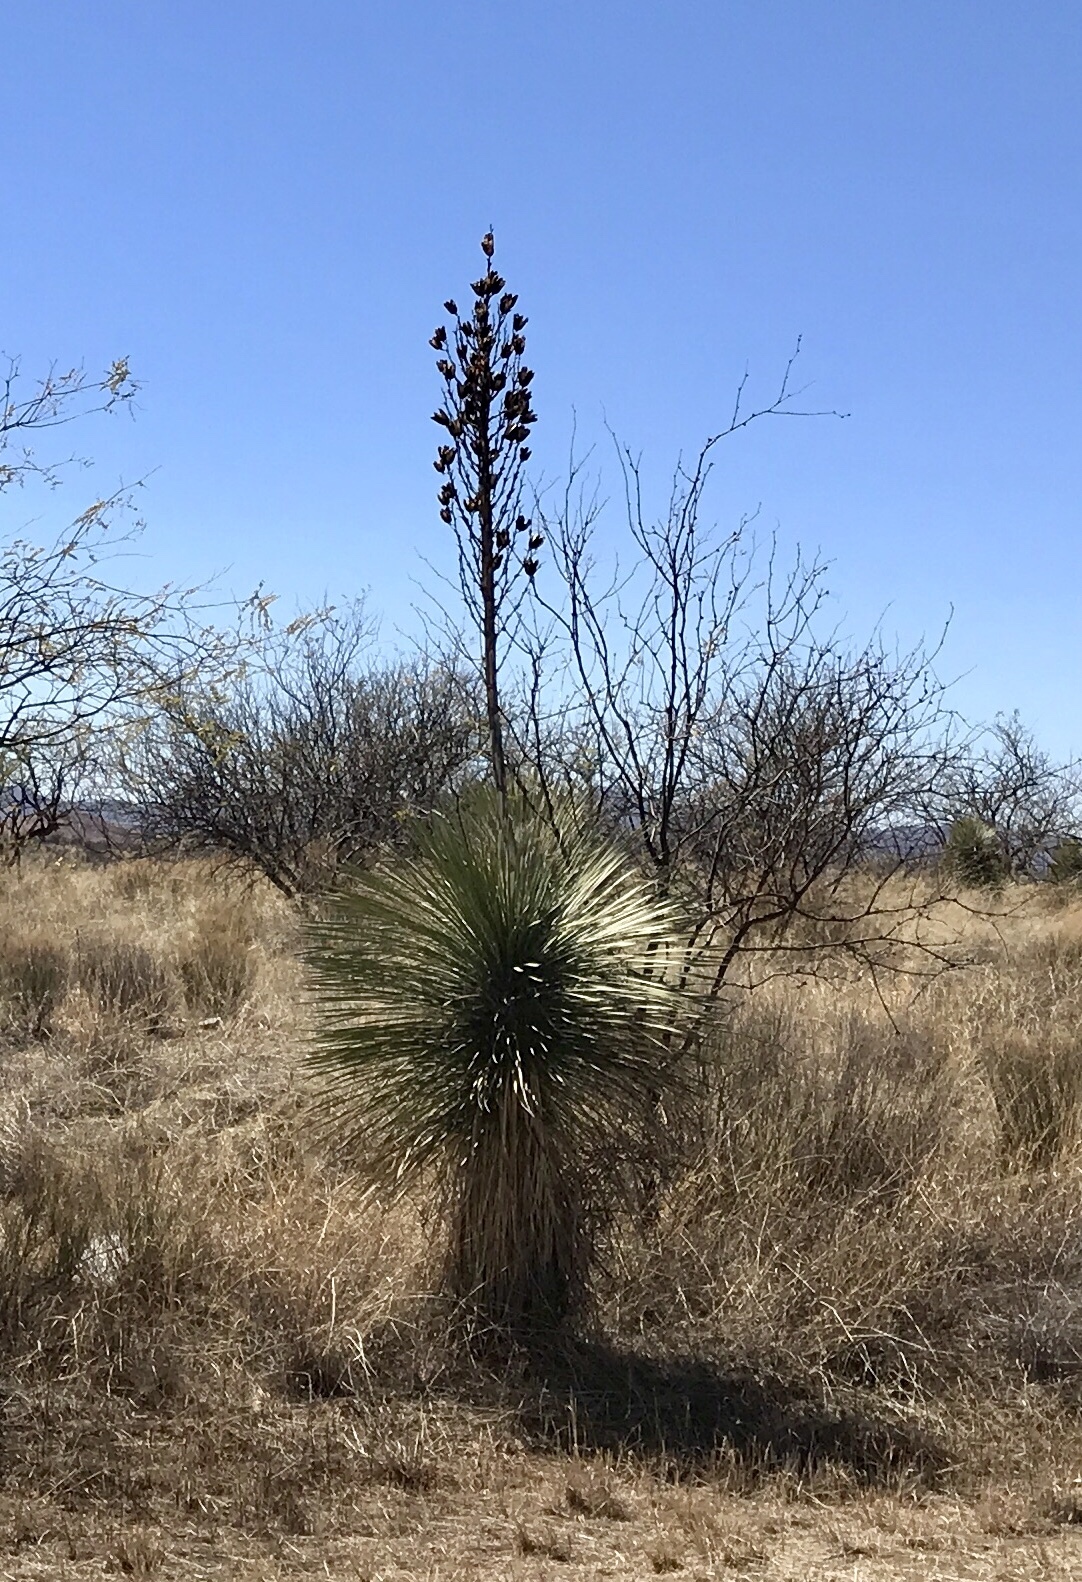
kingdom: Plantae
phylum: Tracheophyta
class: Liliopsida
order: Asparagales
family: Asparagaceae
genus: Yucca
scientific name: Yucca elata
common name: Palmella
